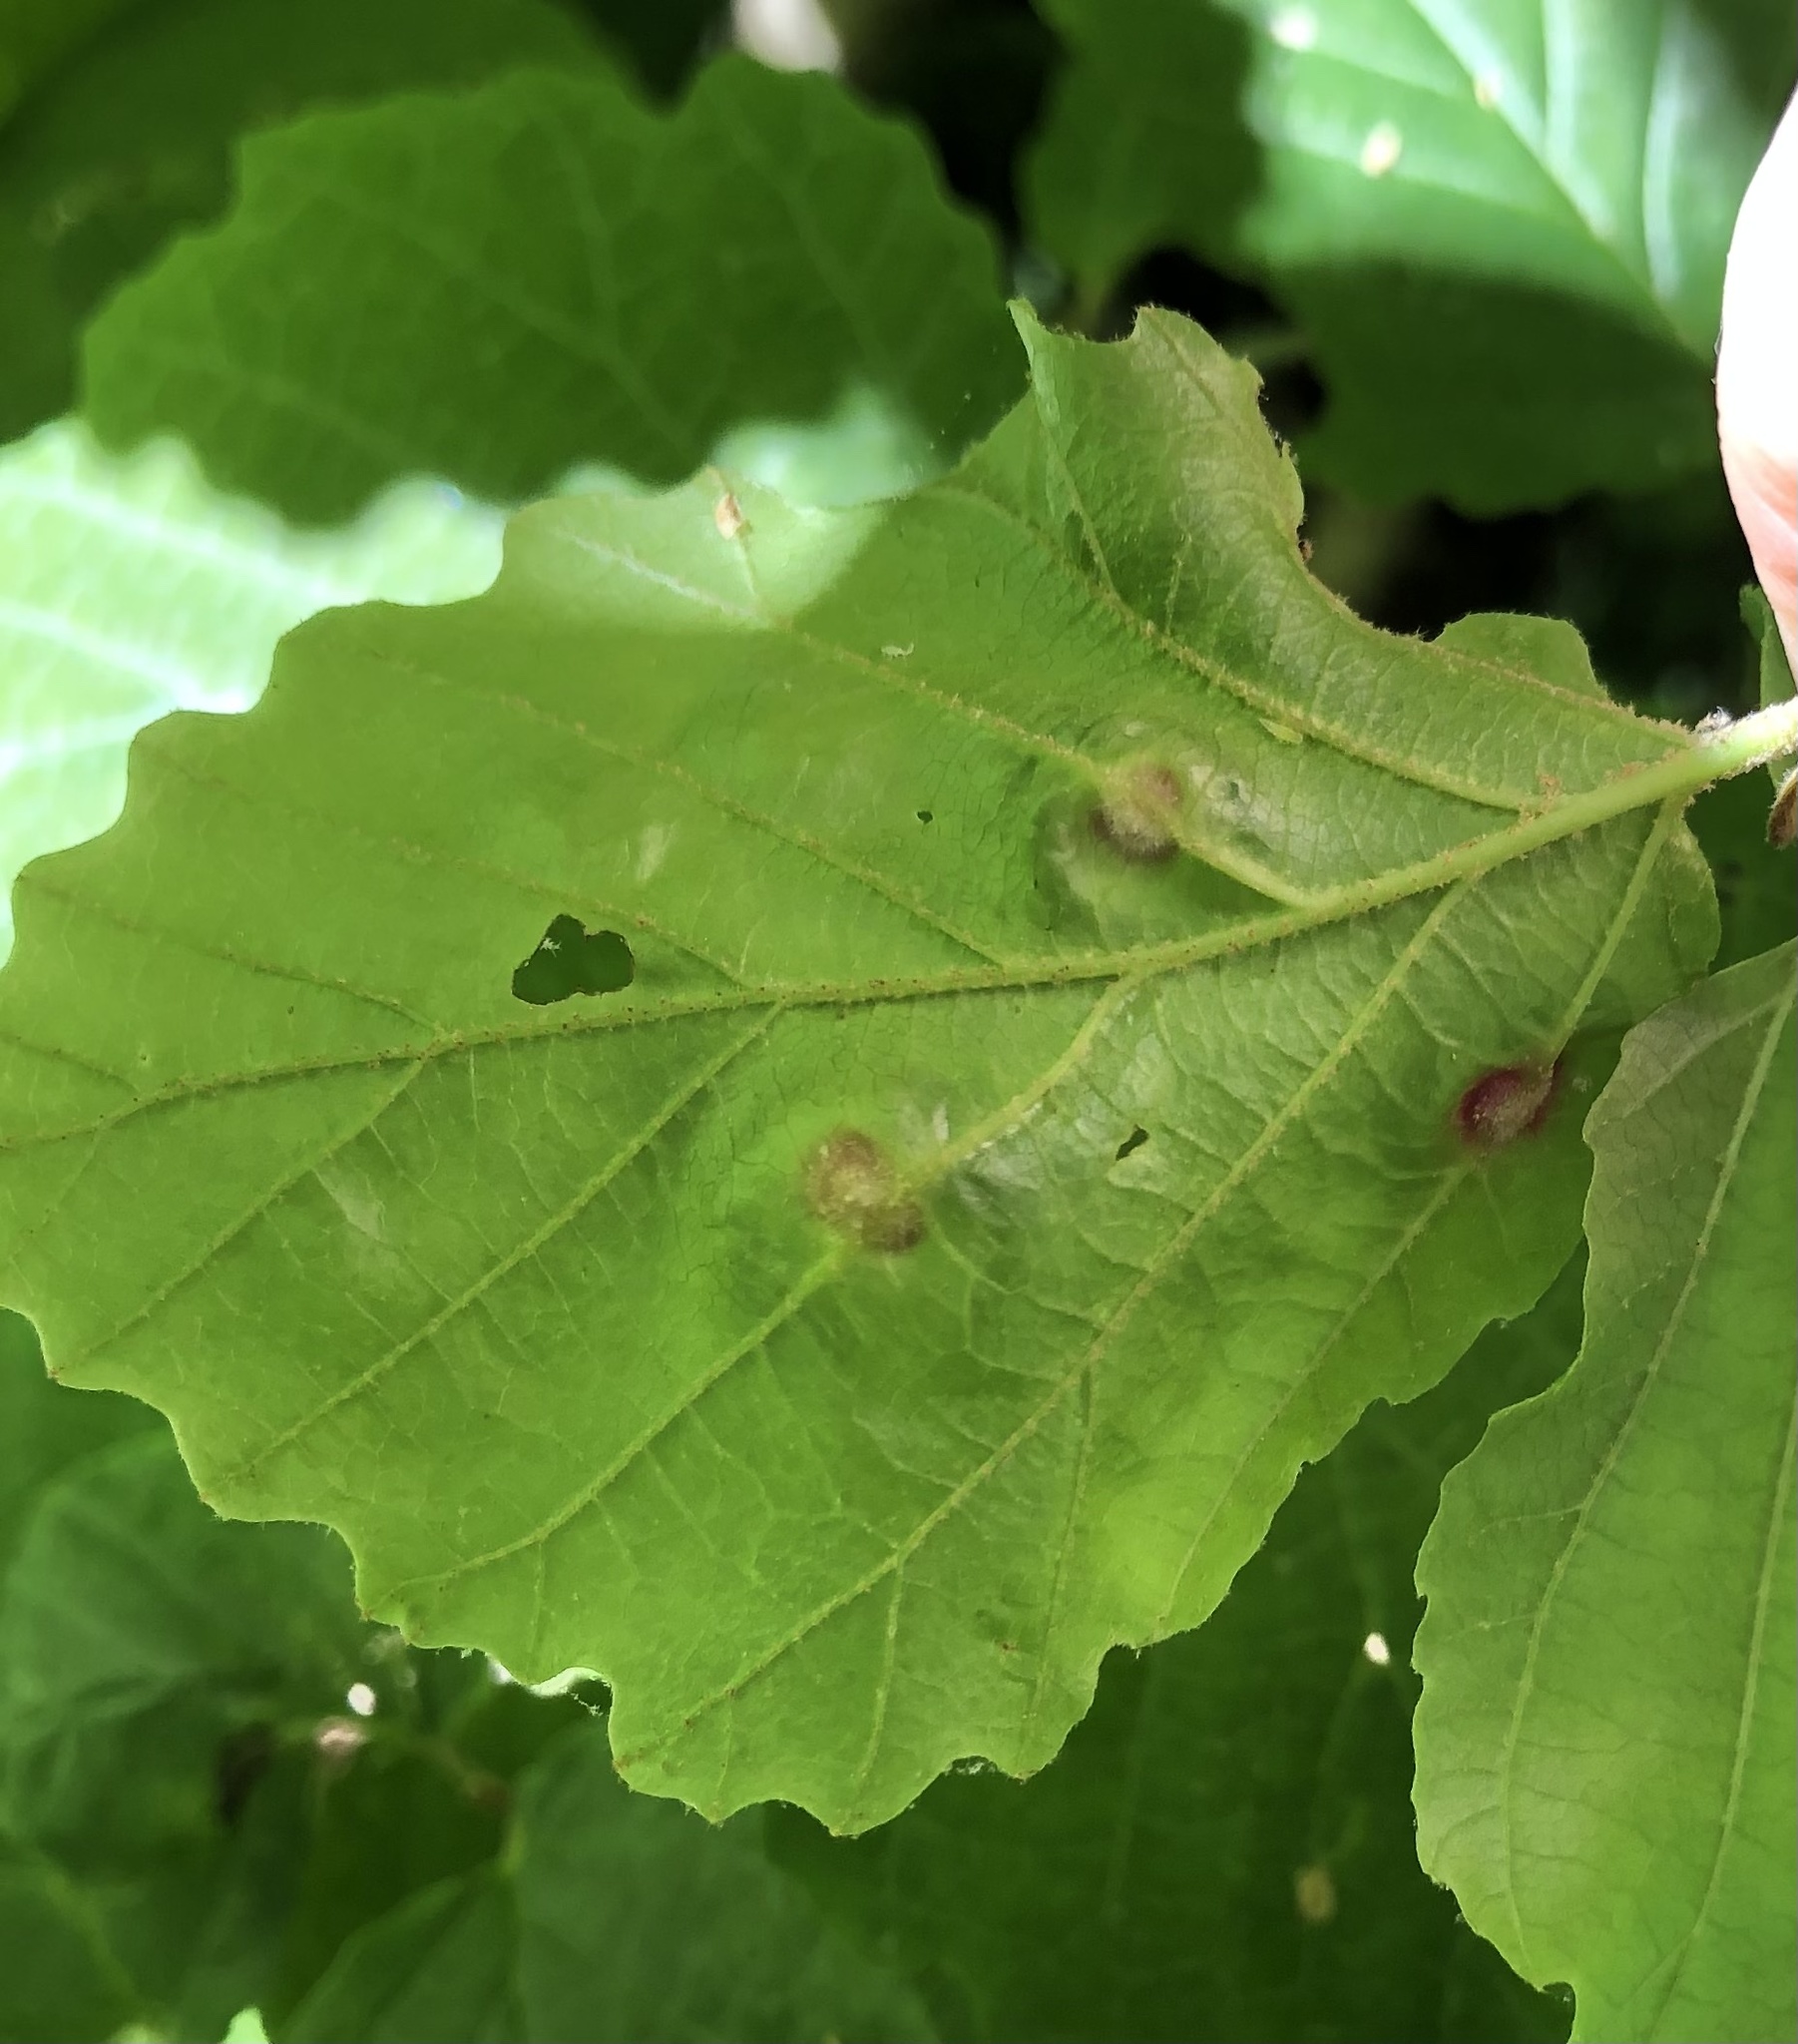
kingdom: Animalia
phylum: Arthropoda
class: Insecta
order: Hemiptera
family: Aphididae
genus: Hormaphis
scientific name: Hormaphis hamamelidis
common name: Witch-hazel cone gall aphid
